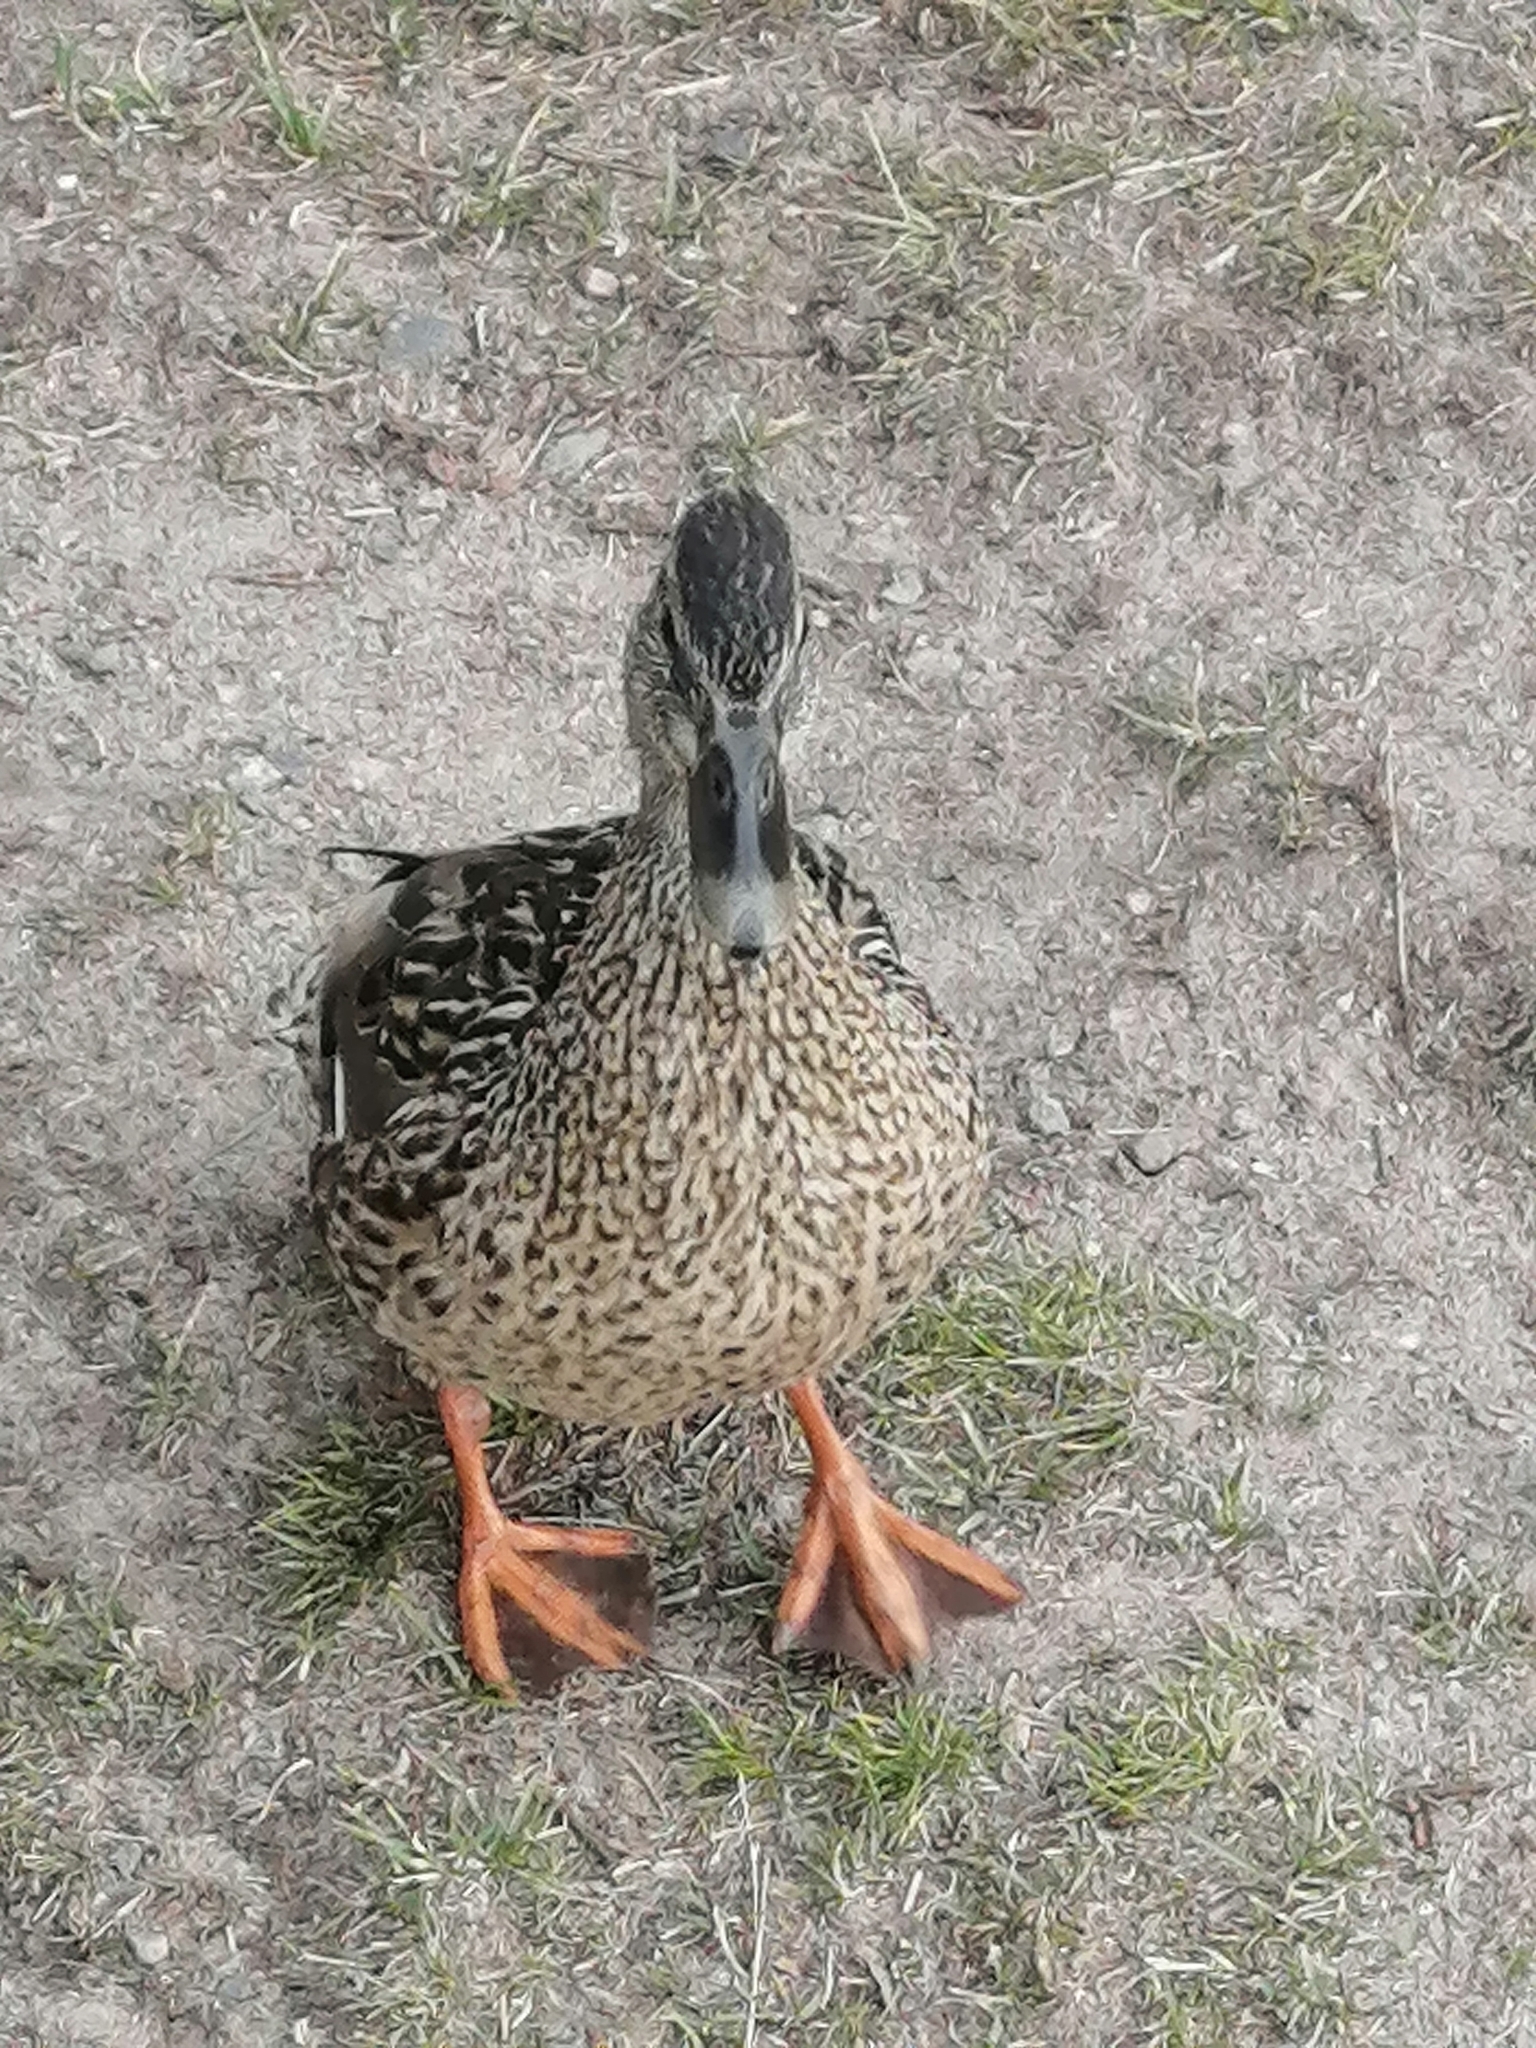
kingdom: Animalia
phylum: Chordata
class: Aves
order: Anseriformes
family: Anatidae
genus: Anas
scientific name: Anas platyrhynchos
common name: Mallard
